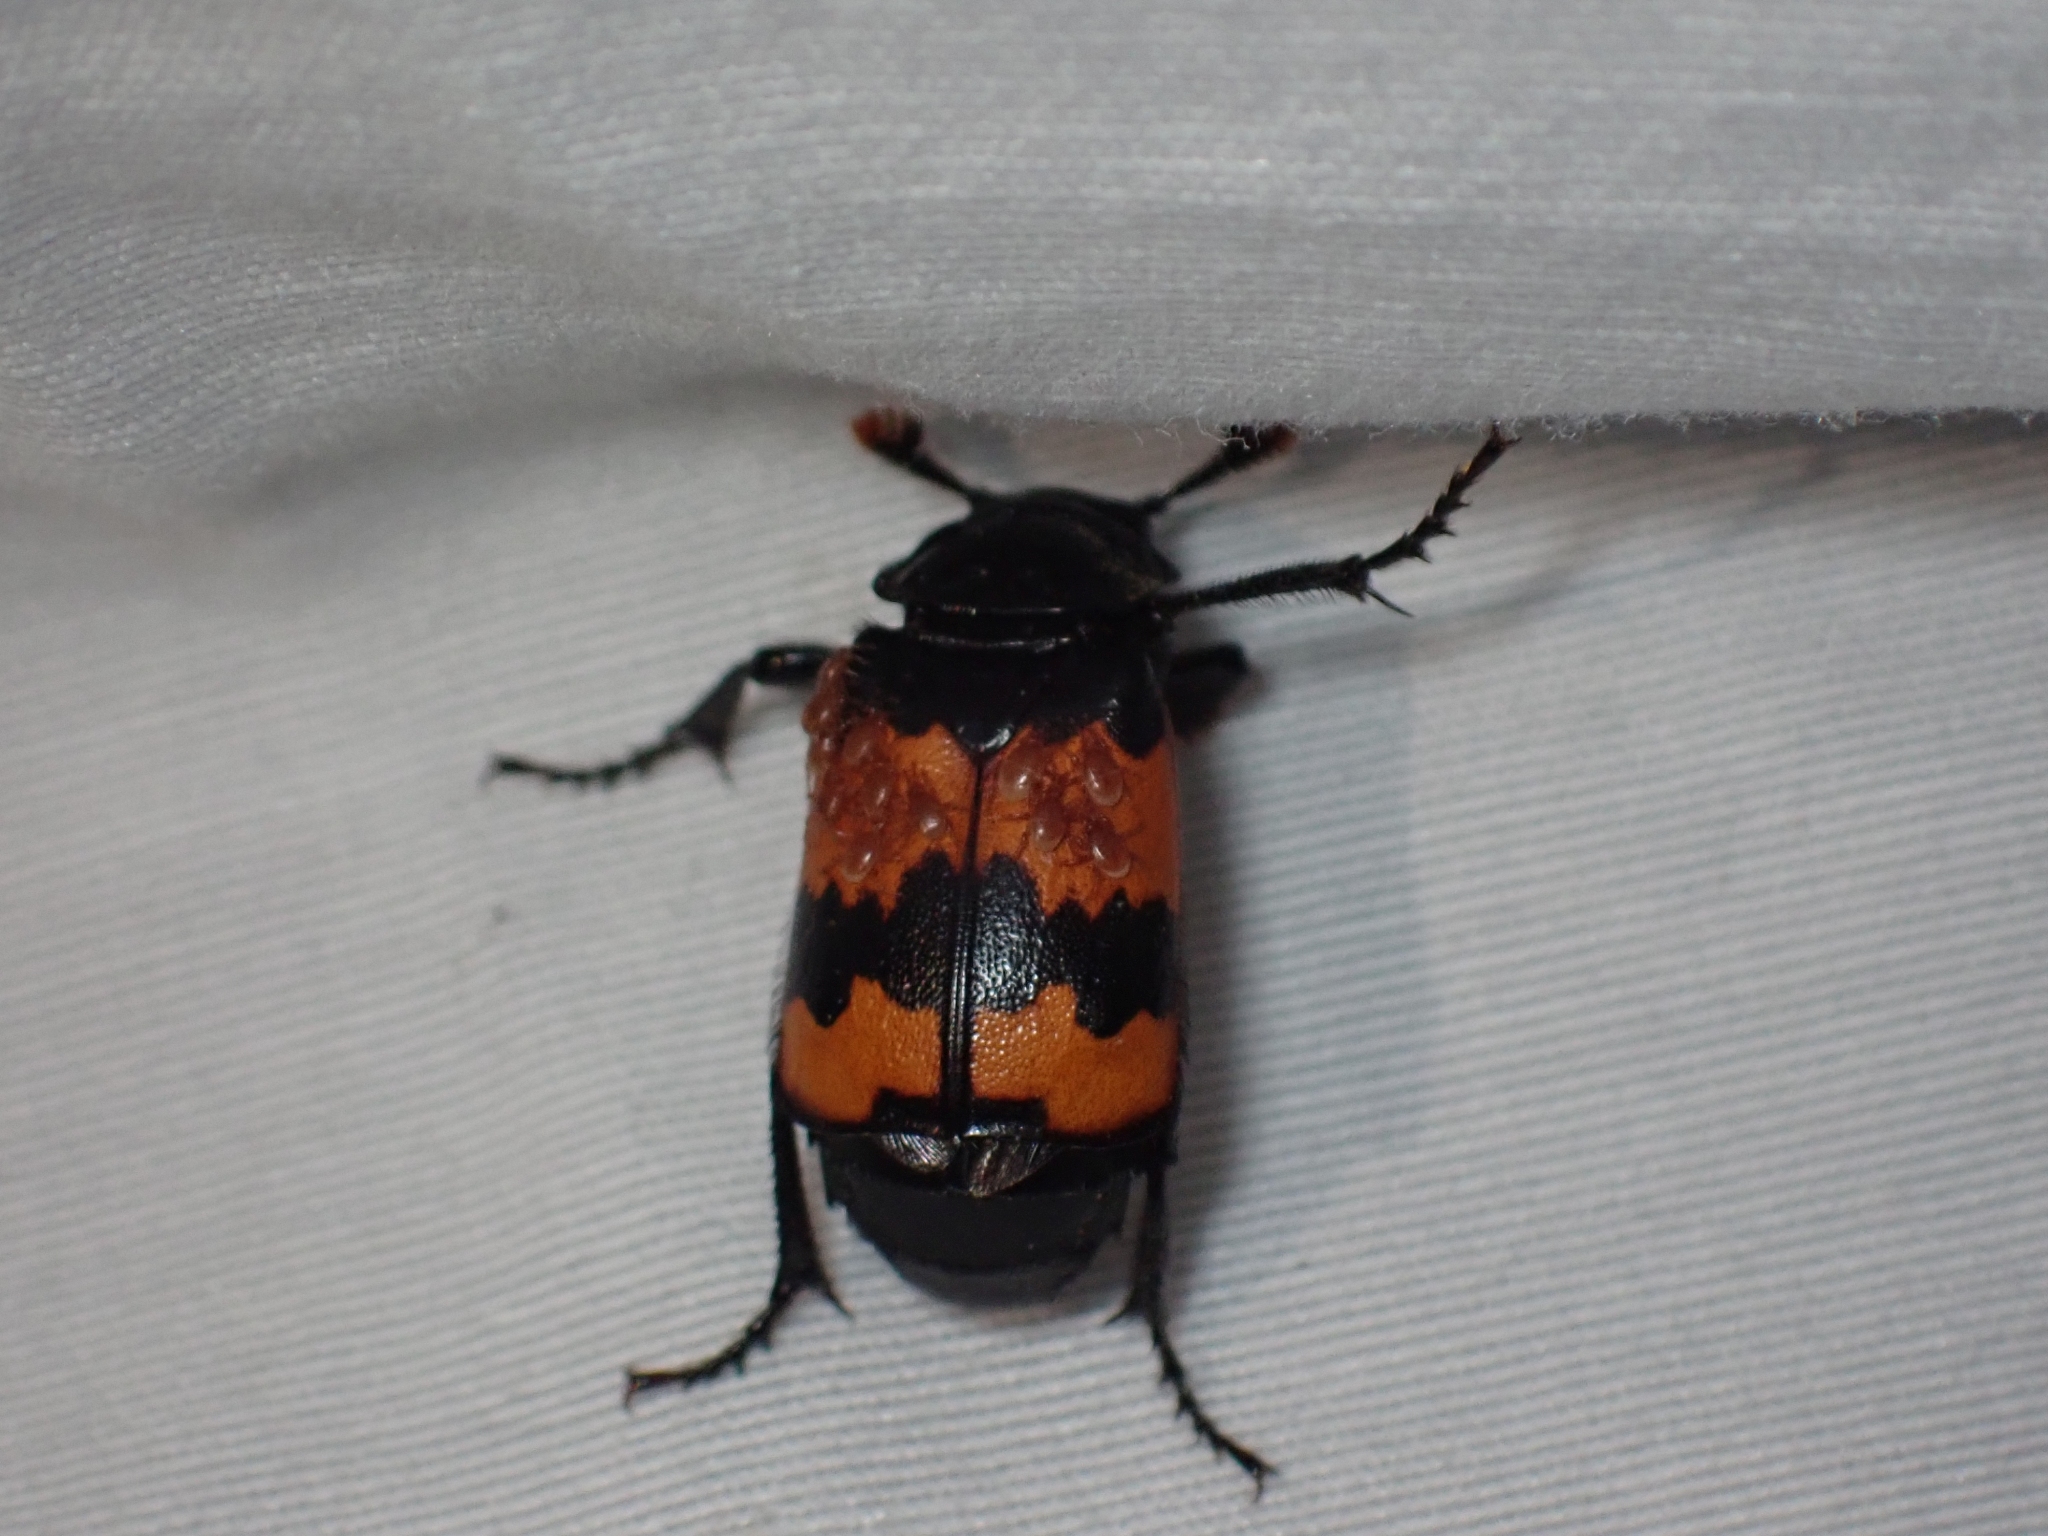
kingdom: Animalia
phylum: Arthropoda
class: Insecta
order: Coleoptera
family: Staphylinidae
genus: Nicrophorus
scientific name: Nicrophorus investigator
